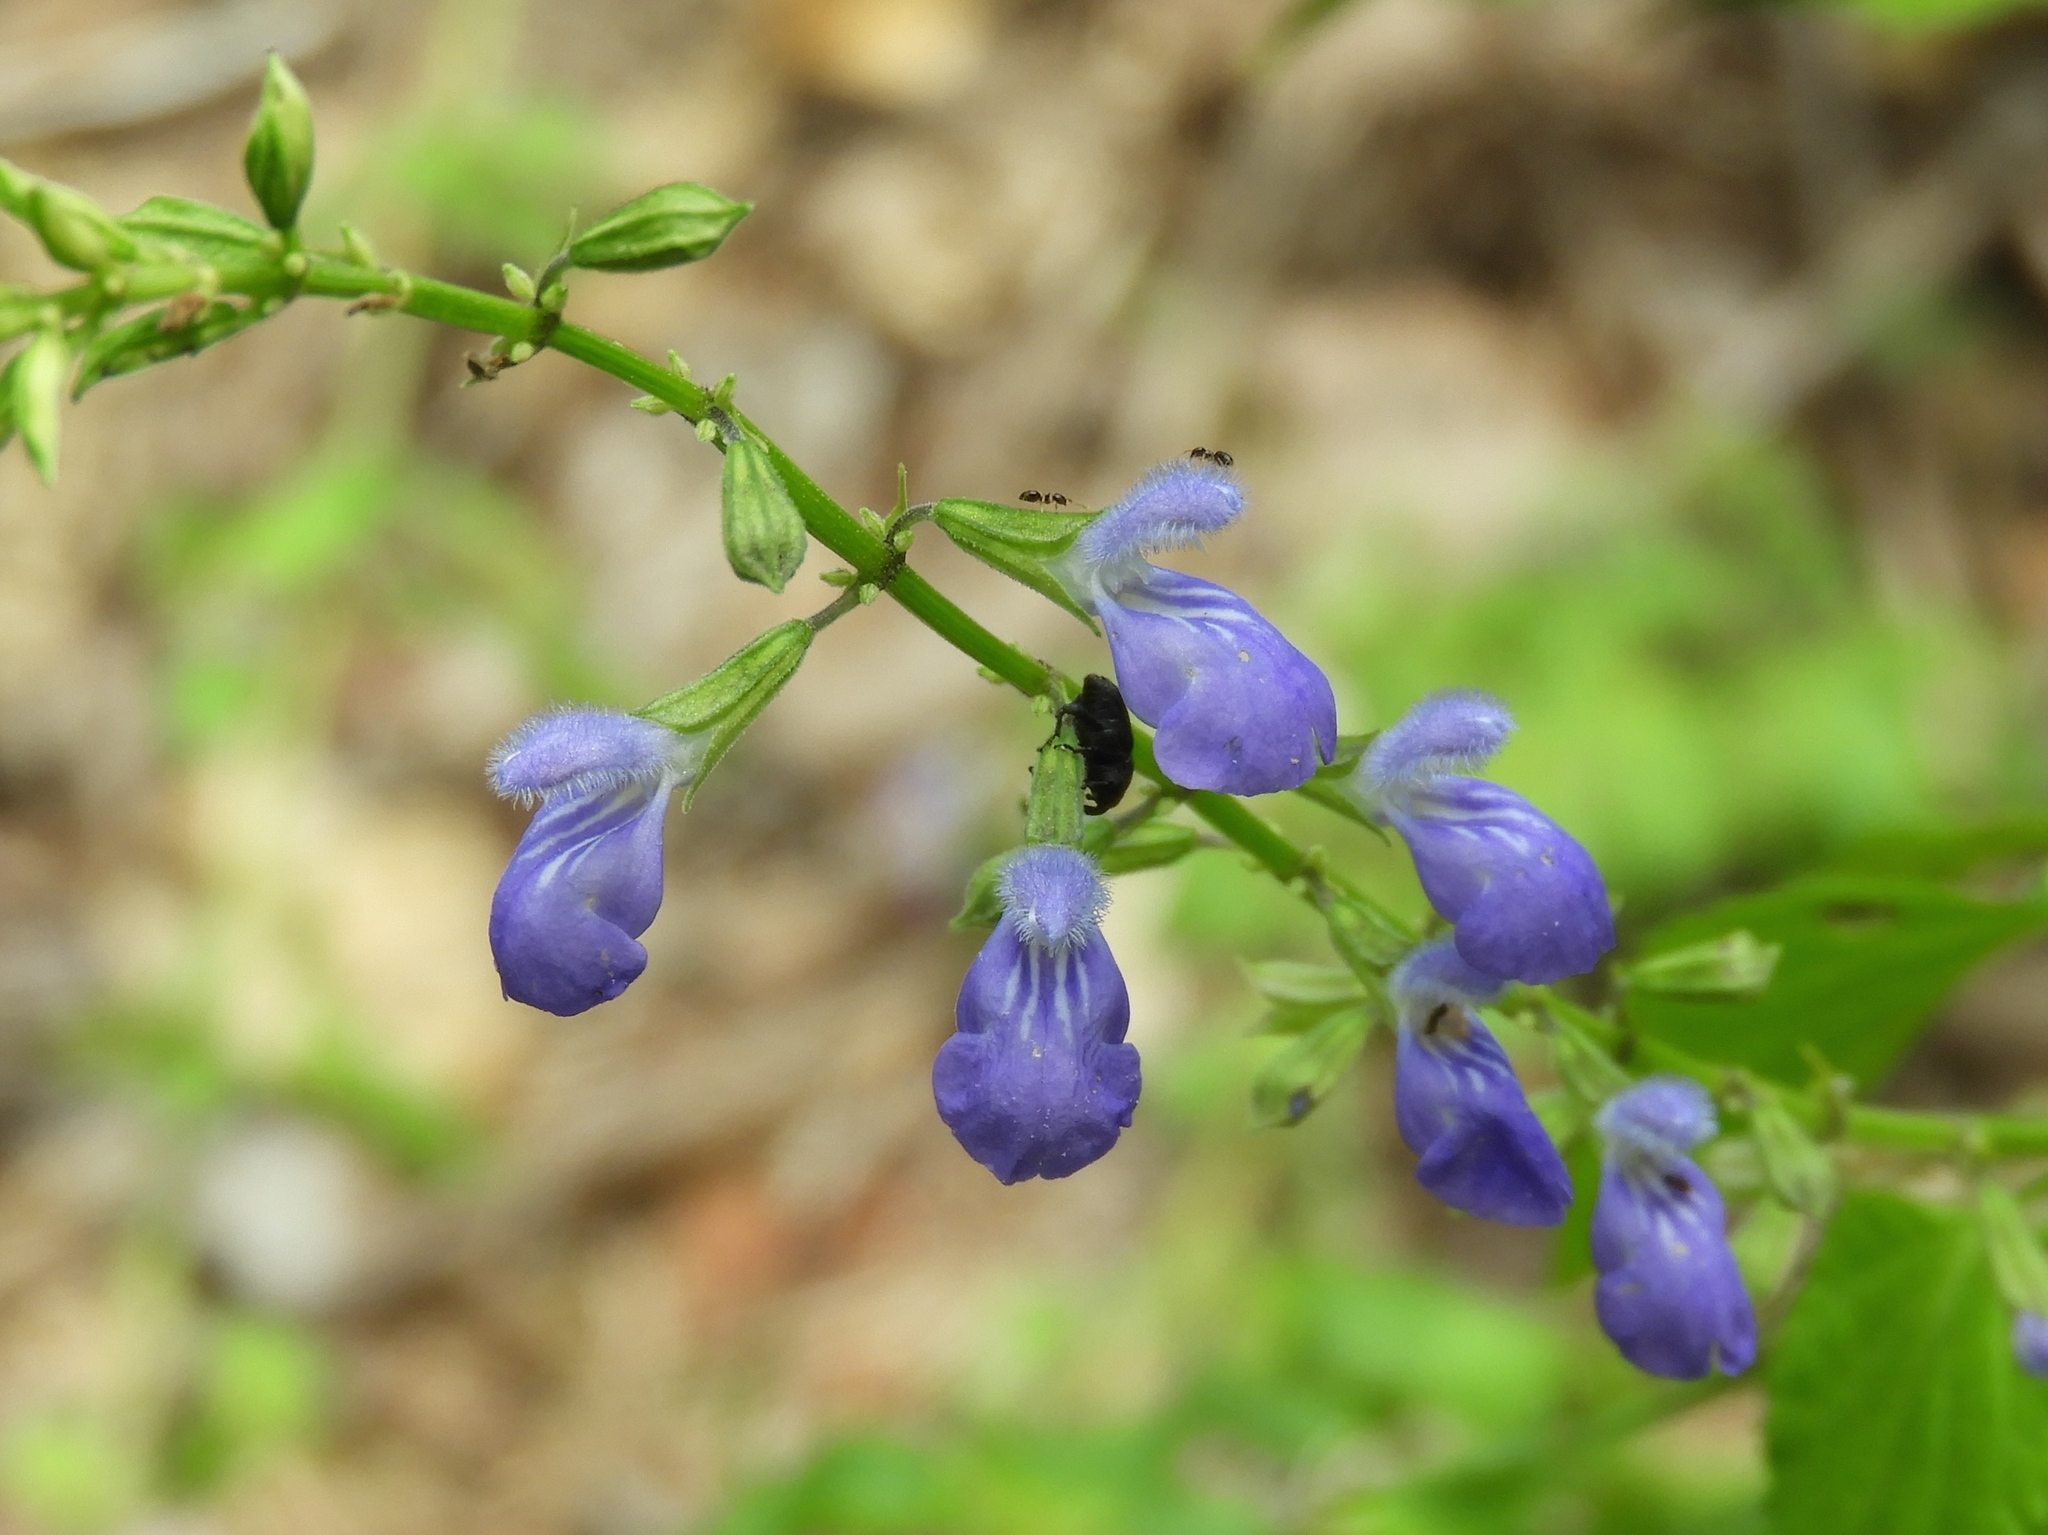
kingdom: Plantae
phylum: Tracheophyta
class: Magnoliopsida
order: Lamiales
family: Lamiaceae
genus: Salvia
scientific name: Salvia languidula
